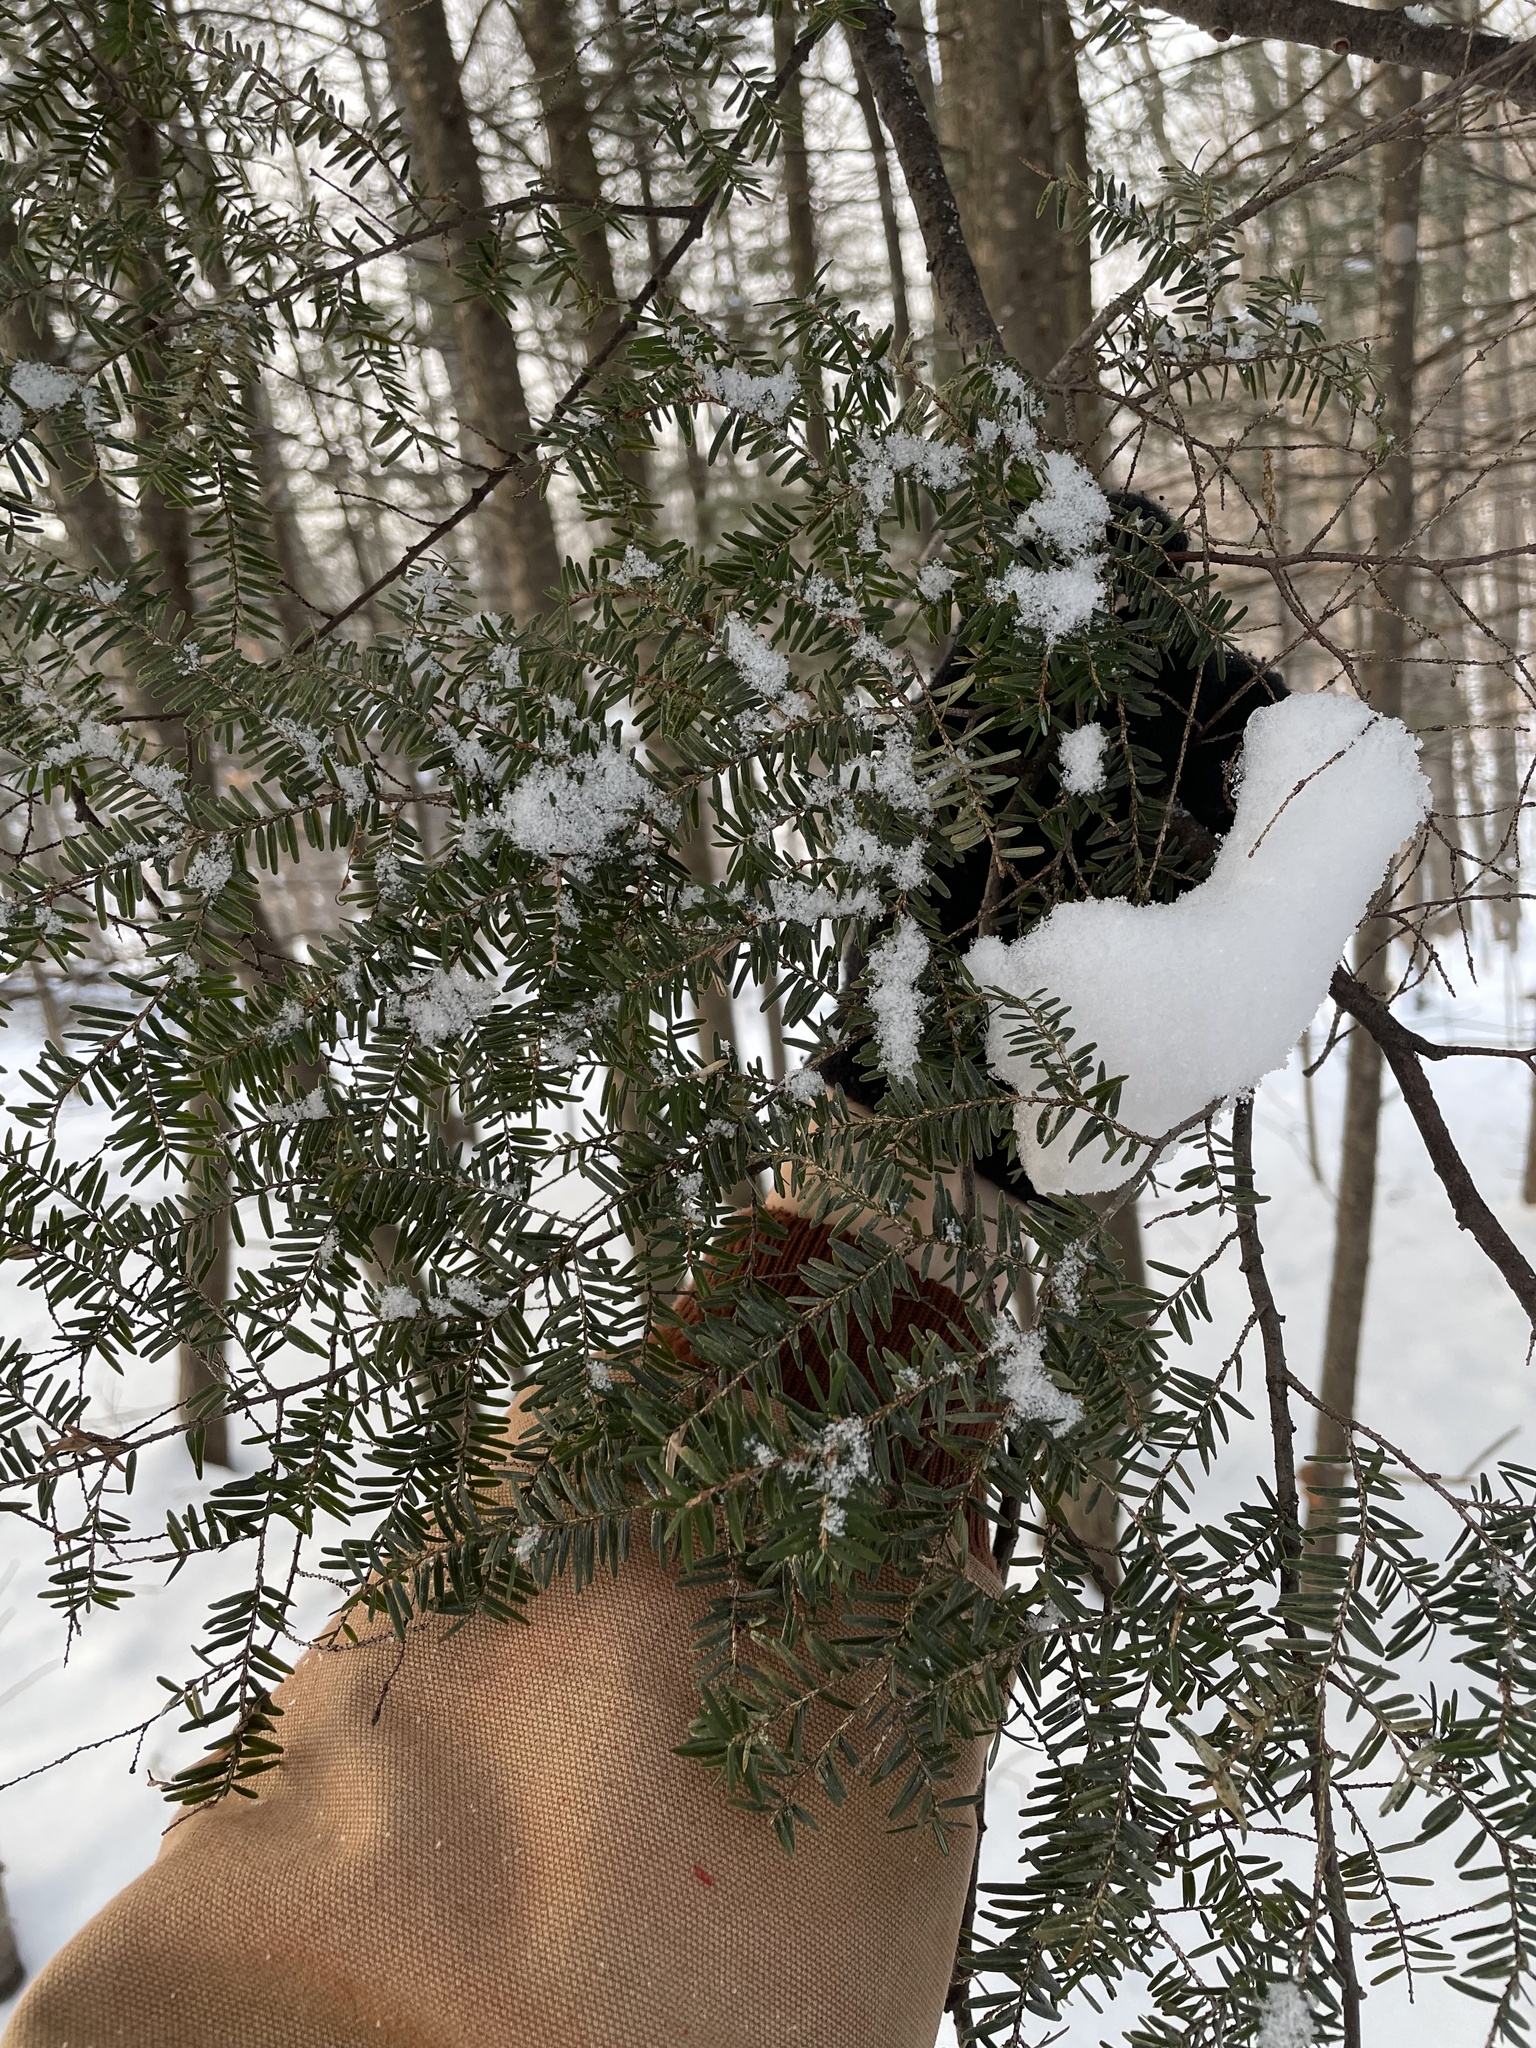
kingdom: Plantae
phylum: Tracheophyta
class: Pinopsida
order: Pinales
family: Pinaceae
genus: Tsuga
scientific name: Tsuga canadensis
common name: Eastern hemlock
